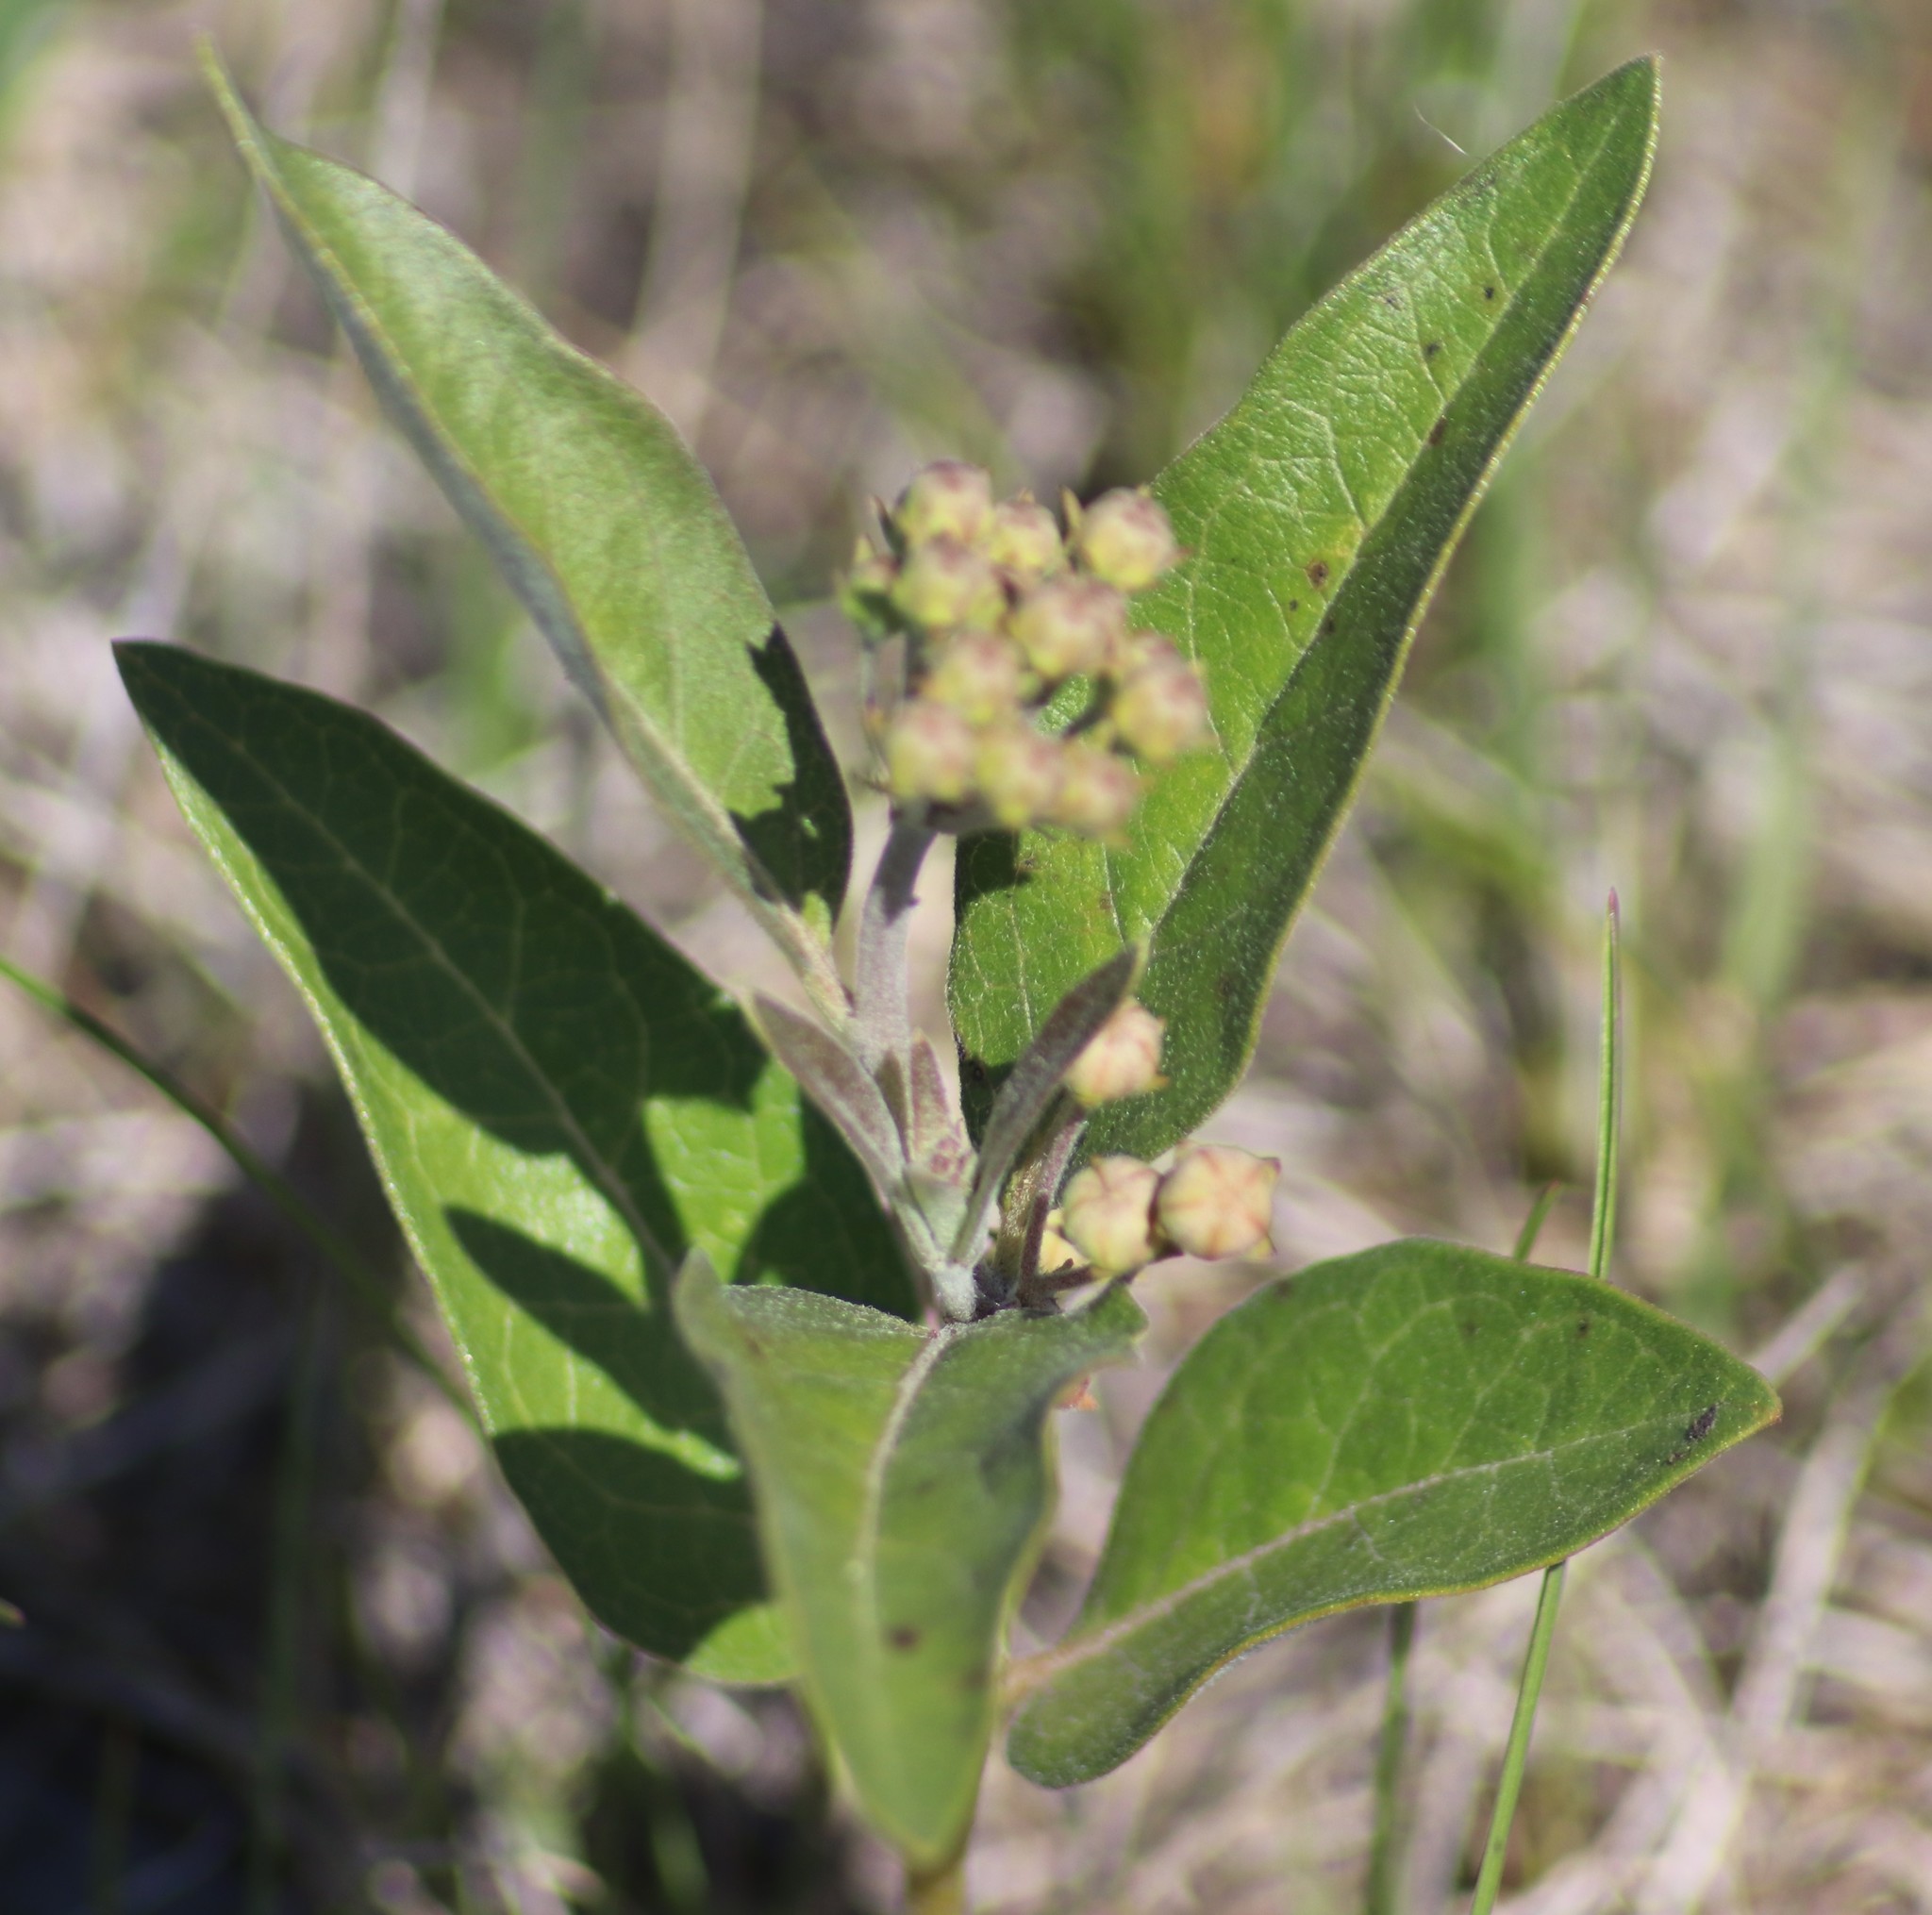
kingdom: Plantae
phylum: Tracheophyta
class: Magnoliopsida
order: Gentianales
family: Apocynaceae
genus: Asclepias
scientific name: Asclepias ovalifolia
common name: Dwarf milkweed
